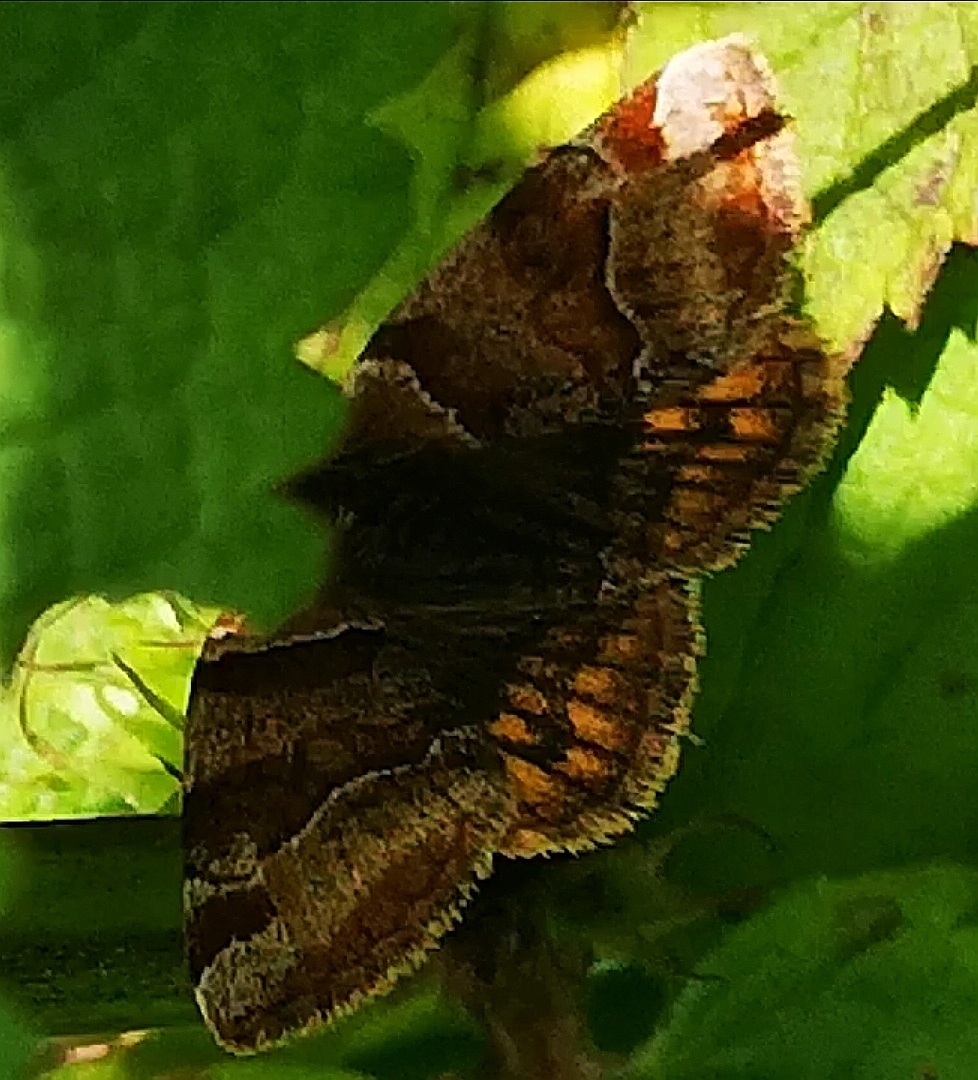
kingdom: Animalia
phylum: Arthropoda
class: Insecta
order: Lepidoptera
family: Erebidae
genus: Euclidia
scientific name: Euclidia glyphica
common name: Burnet companion
